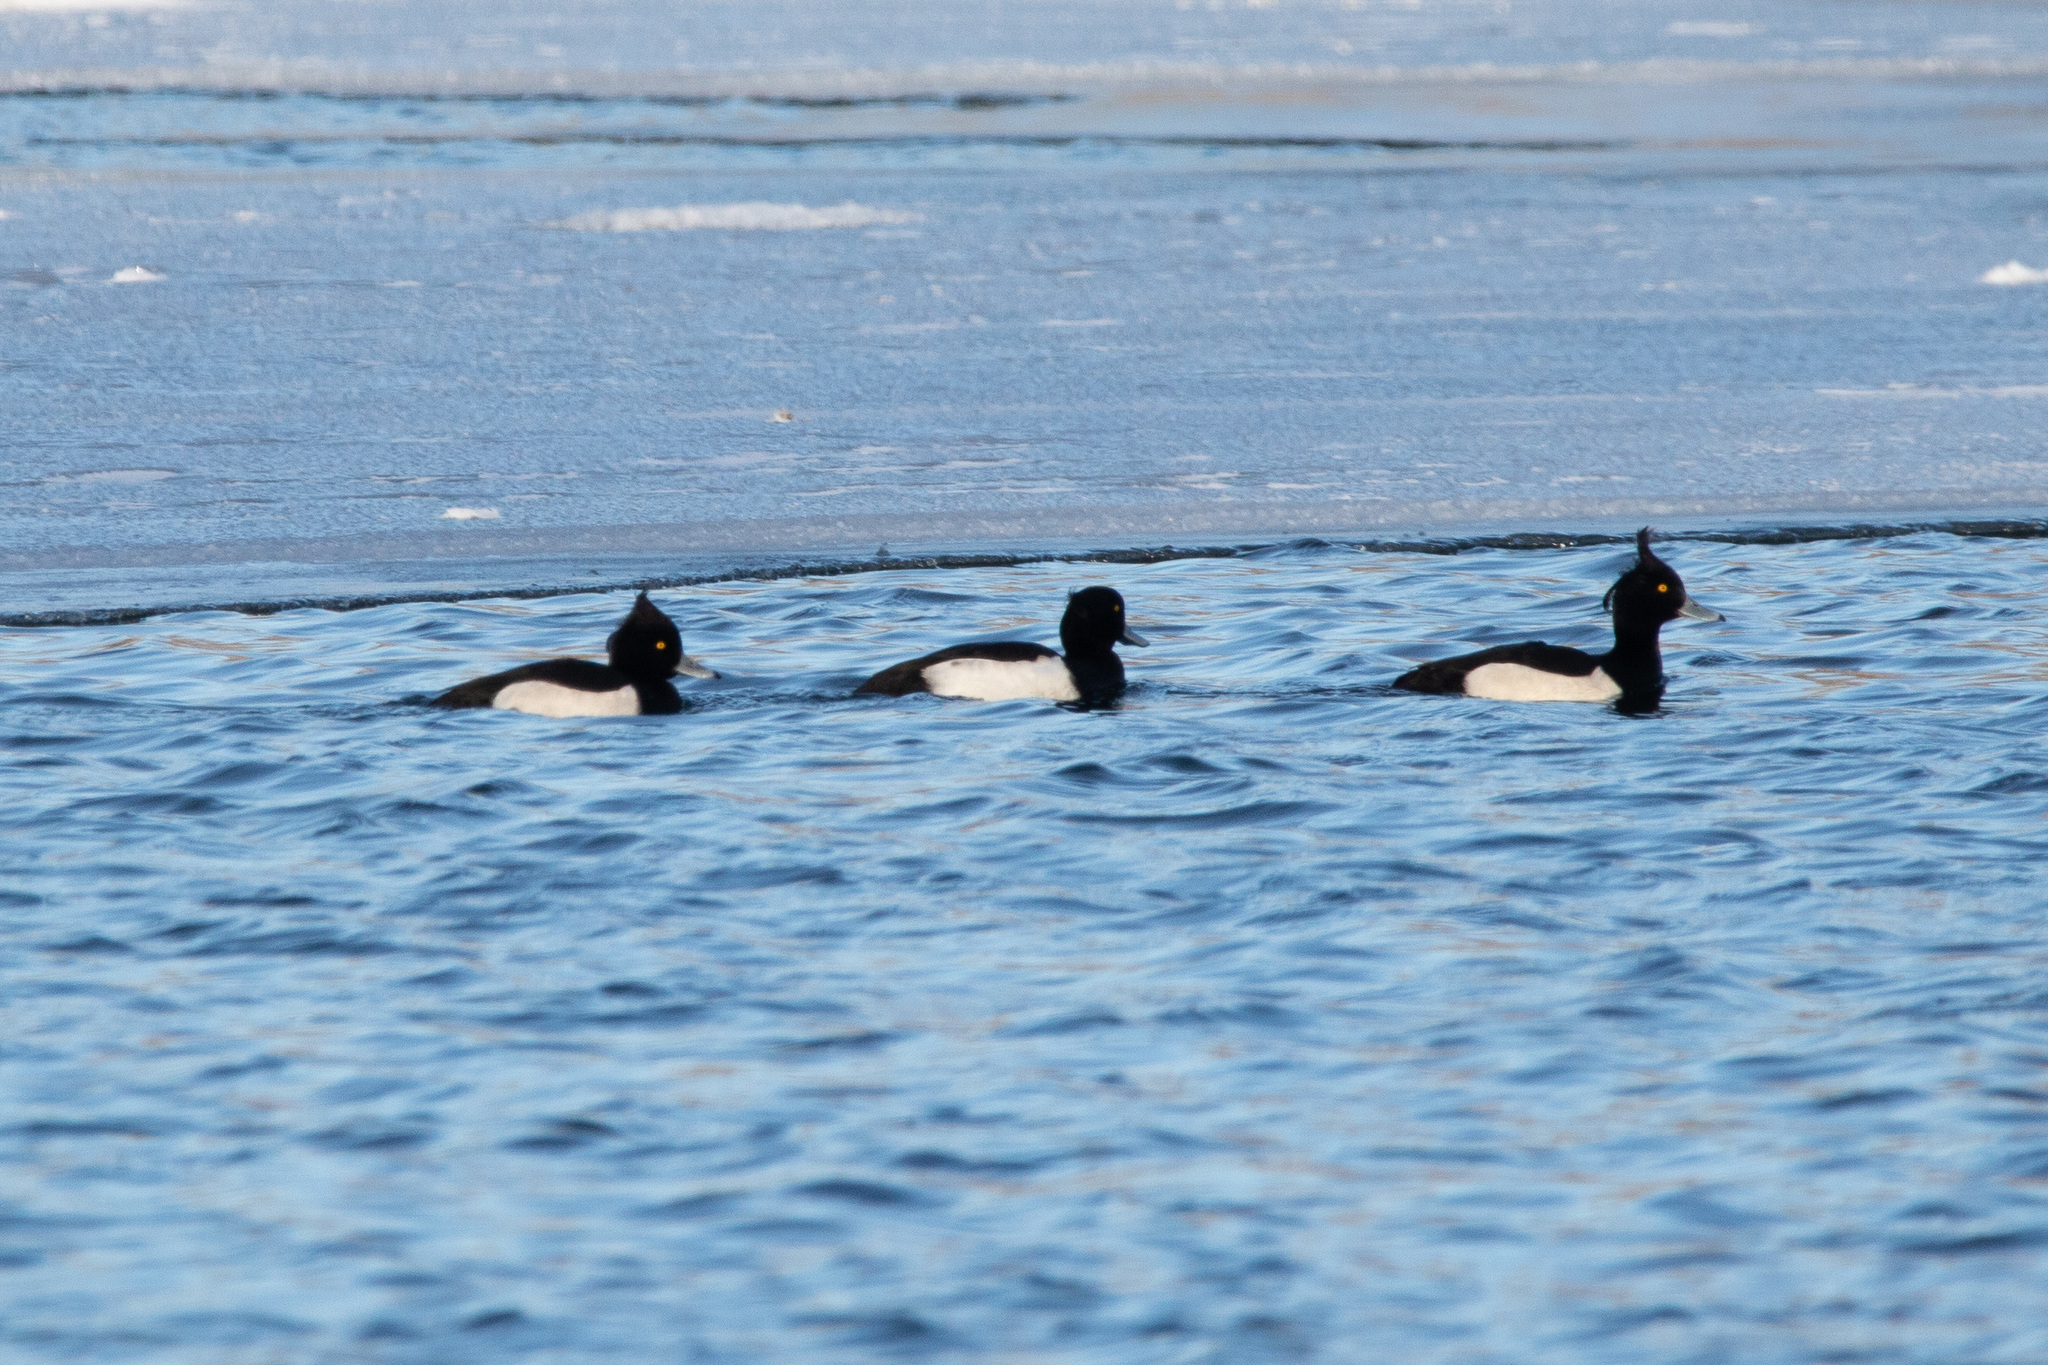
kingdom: Animalia
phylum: Chordata
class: Aves
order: Anseriformes
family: Anatidae
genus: Aythya
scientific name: Aythya fuligula
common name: Tufted duck
